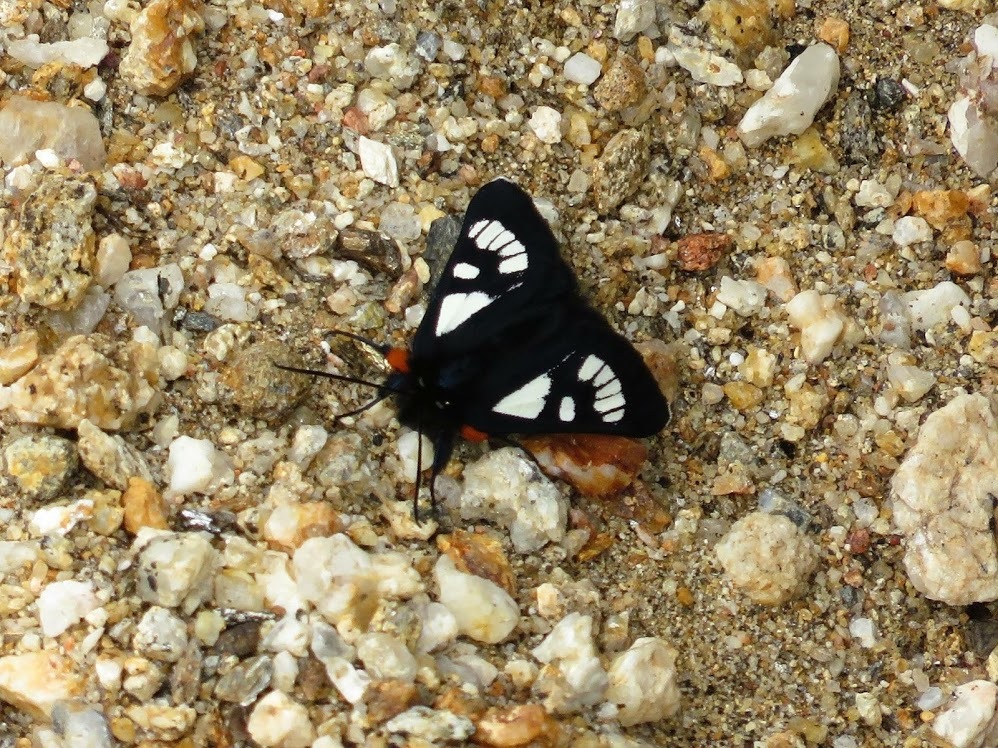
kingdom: Animalia
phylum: Arthropoda
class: Insecta
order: Lepidoptera
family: Noctuidae
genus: Alypia
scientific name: Alypia ridingsii
